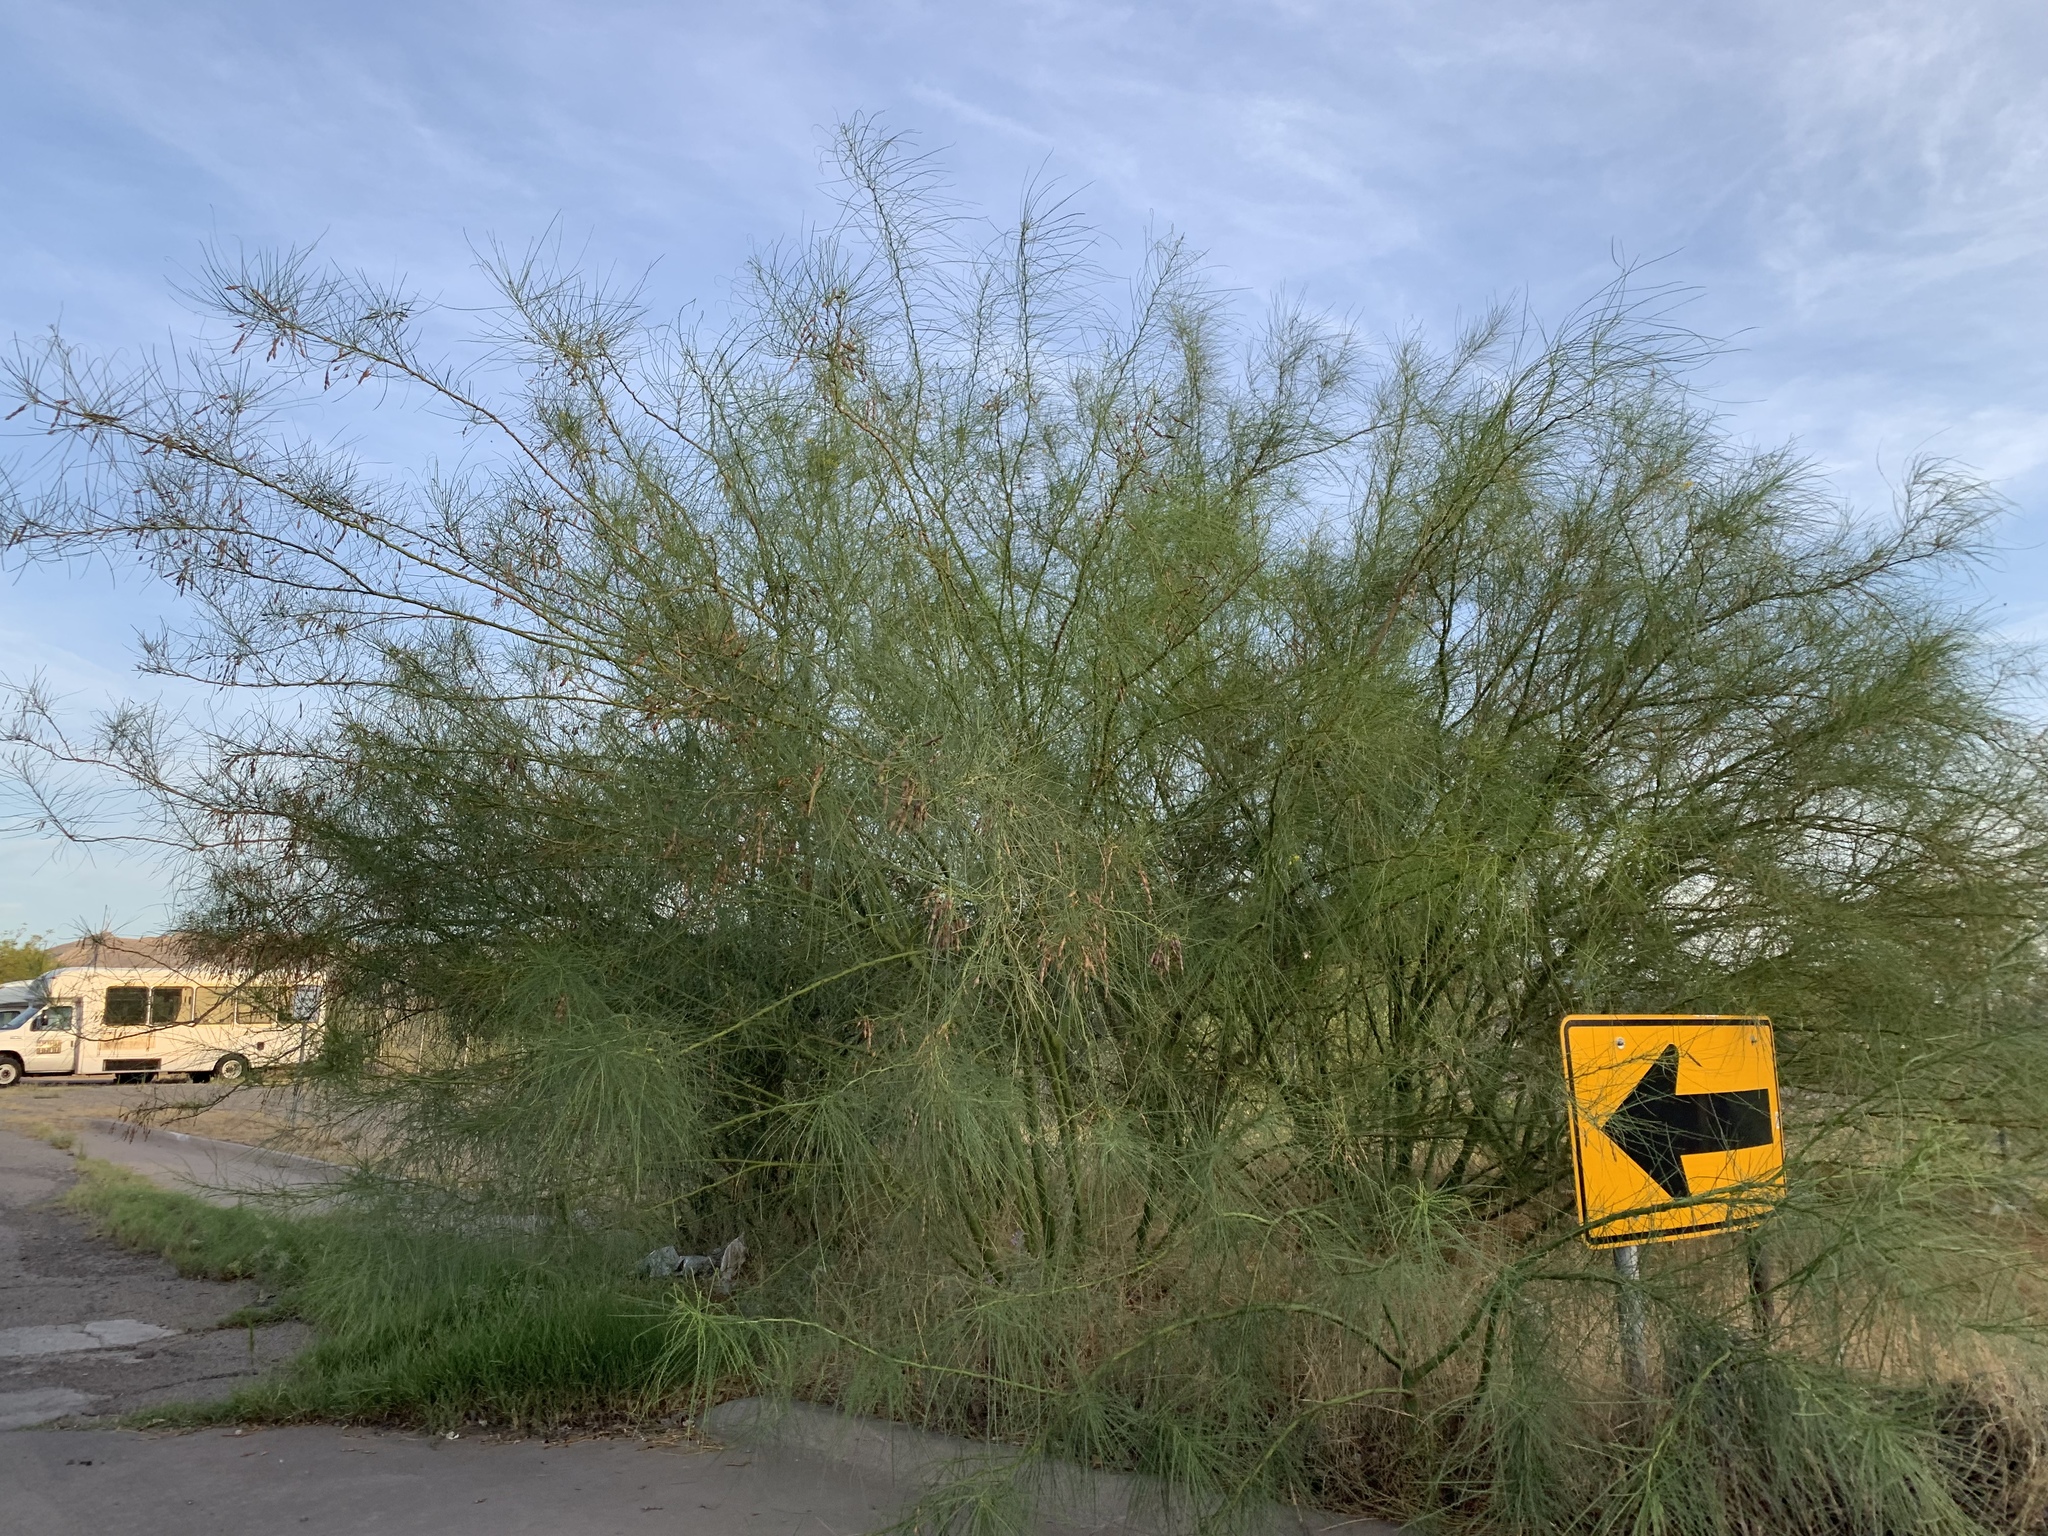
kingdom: Plantae
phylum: Tracheophyta
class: Magnoliopsida
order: Fabales
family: Fabaceae
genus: Parkinsonia
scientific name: Parkinsonia aculeata
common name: Jerusalem thorn
